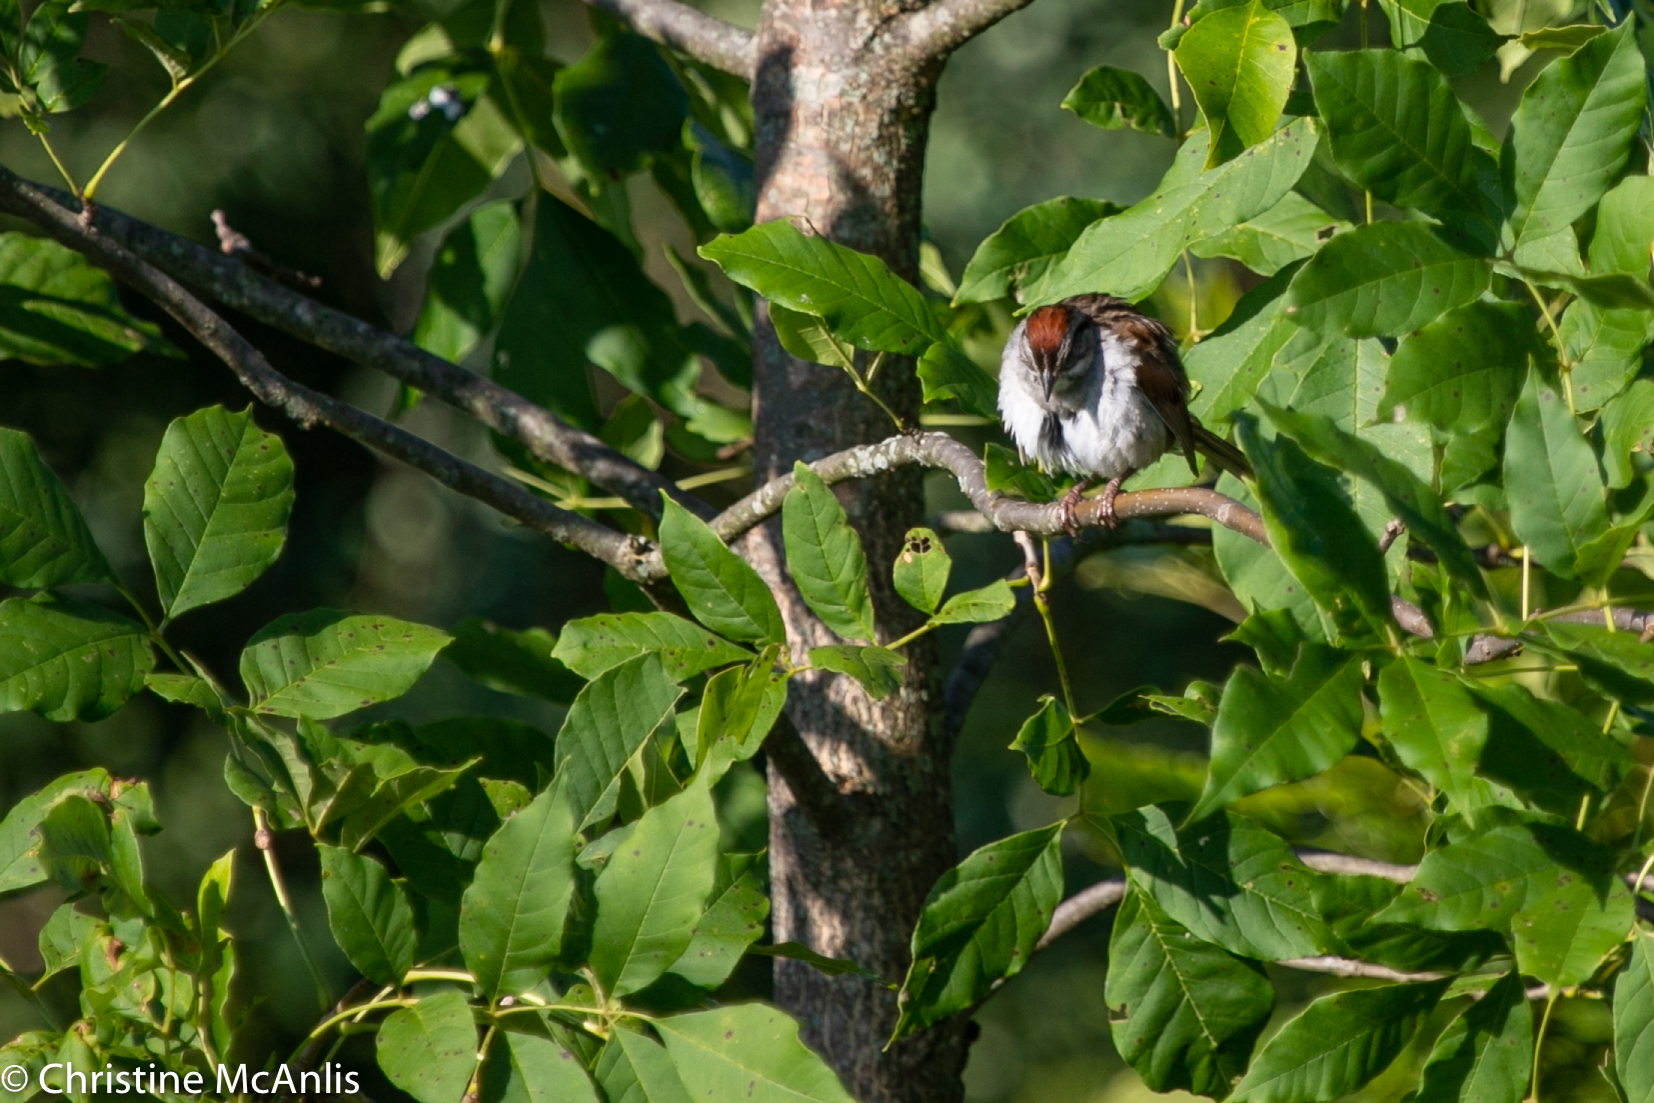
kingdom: Animalia
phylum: Chordata
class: Aves
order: Passeriformes
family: Passerellidae
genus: Melospiza
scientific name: Melospiza georgiana
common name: Swamp sparrow
